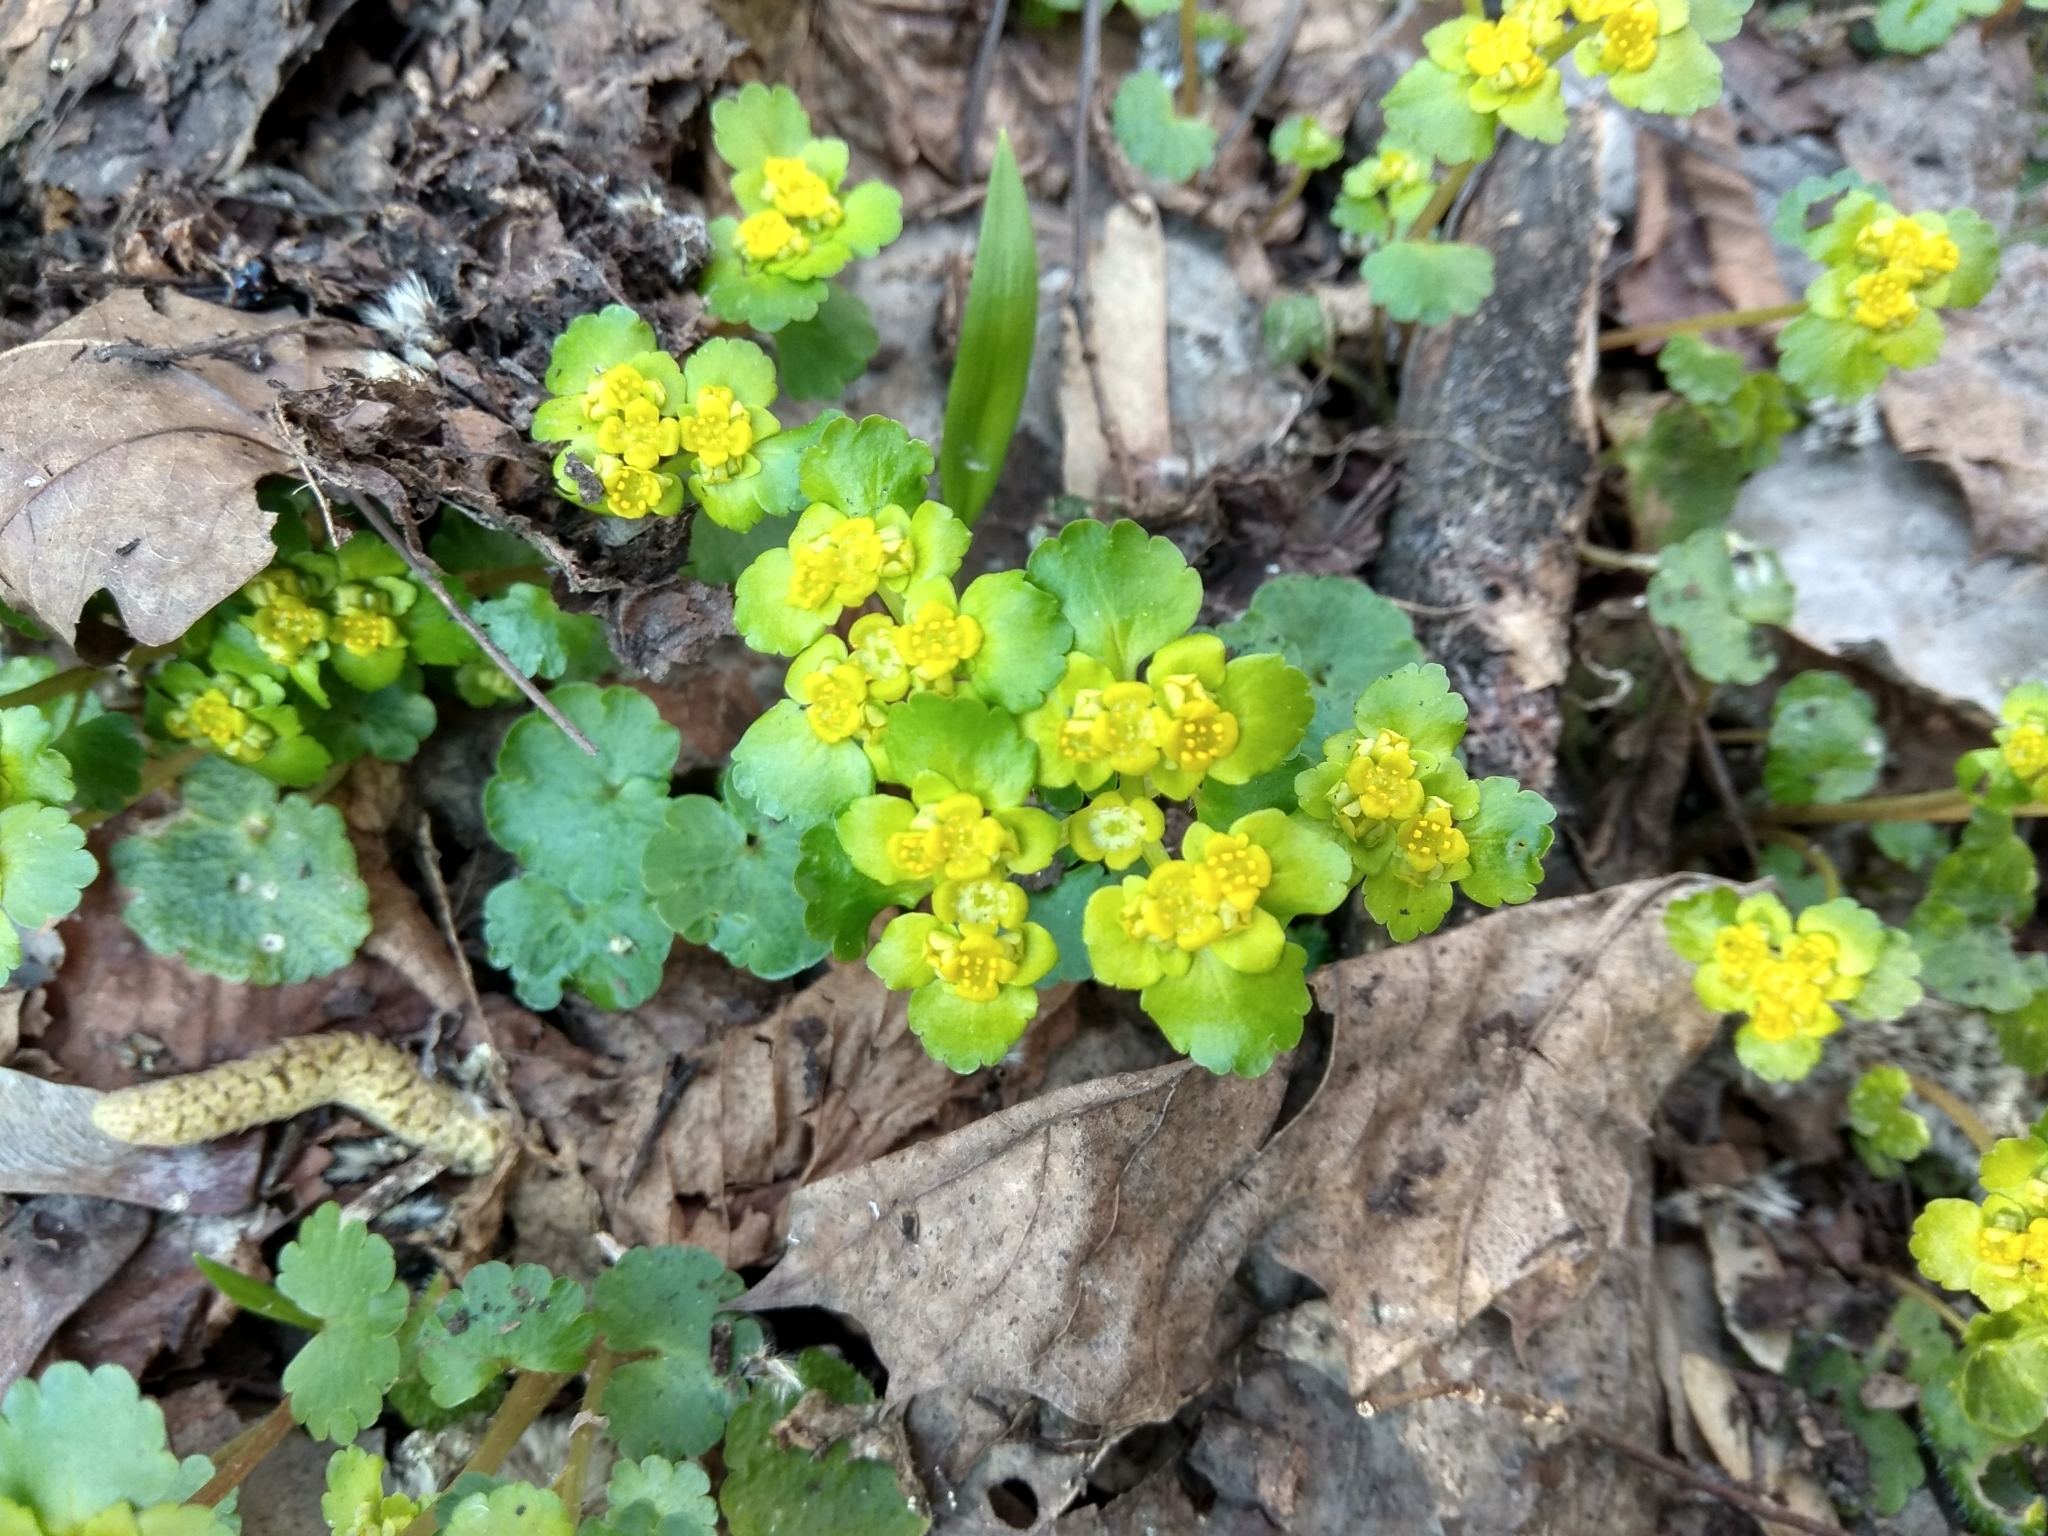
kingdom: Plantae
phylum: Tracheophyta
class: Magnoliopsida
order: Saxifragales
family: Saxifragaceae
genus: Chrysosplenium
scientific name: Chrysosplenium alternifolium
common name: Alternate-leaved golden-saxifrage
